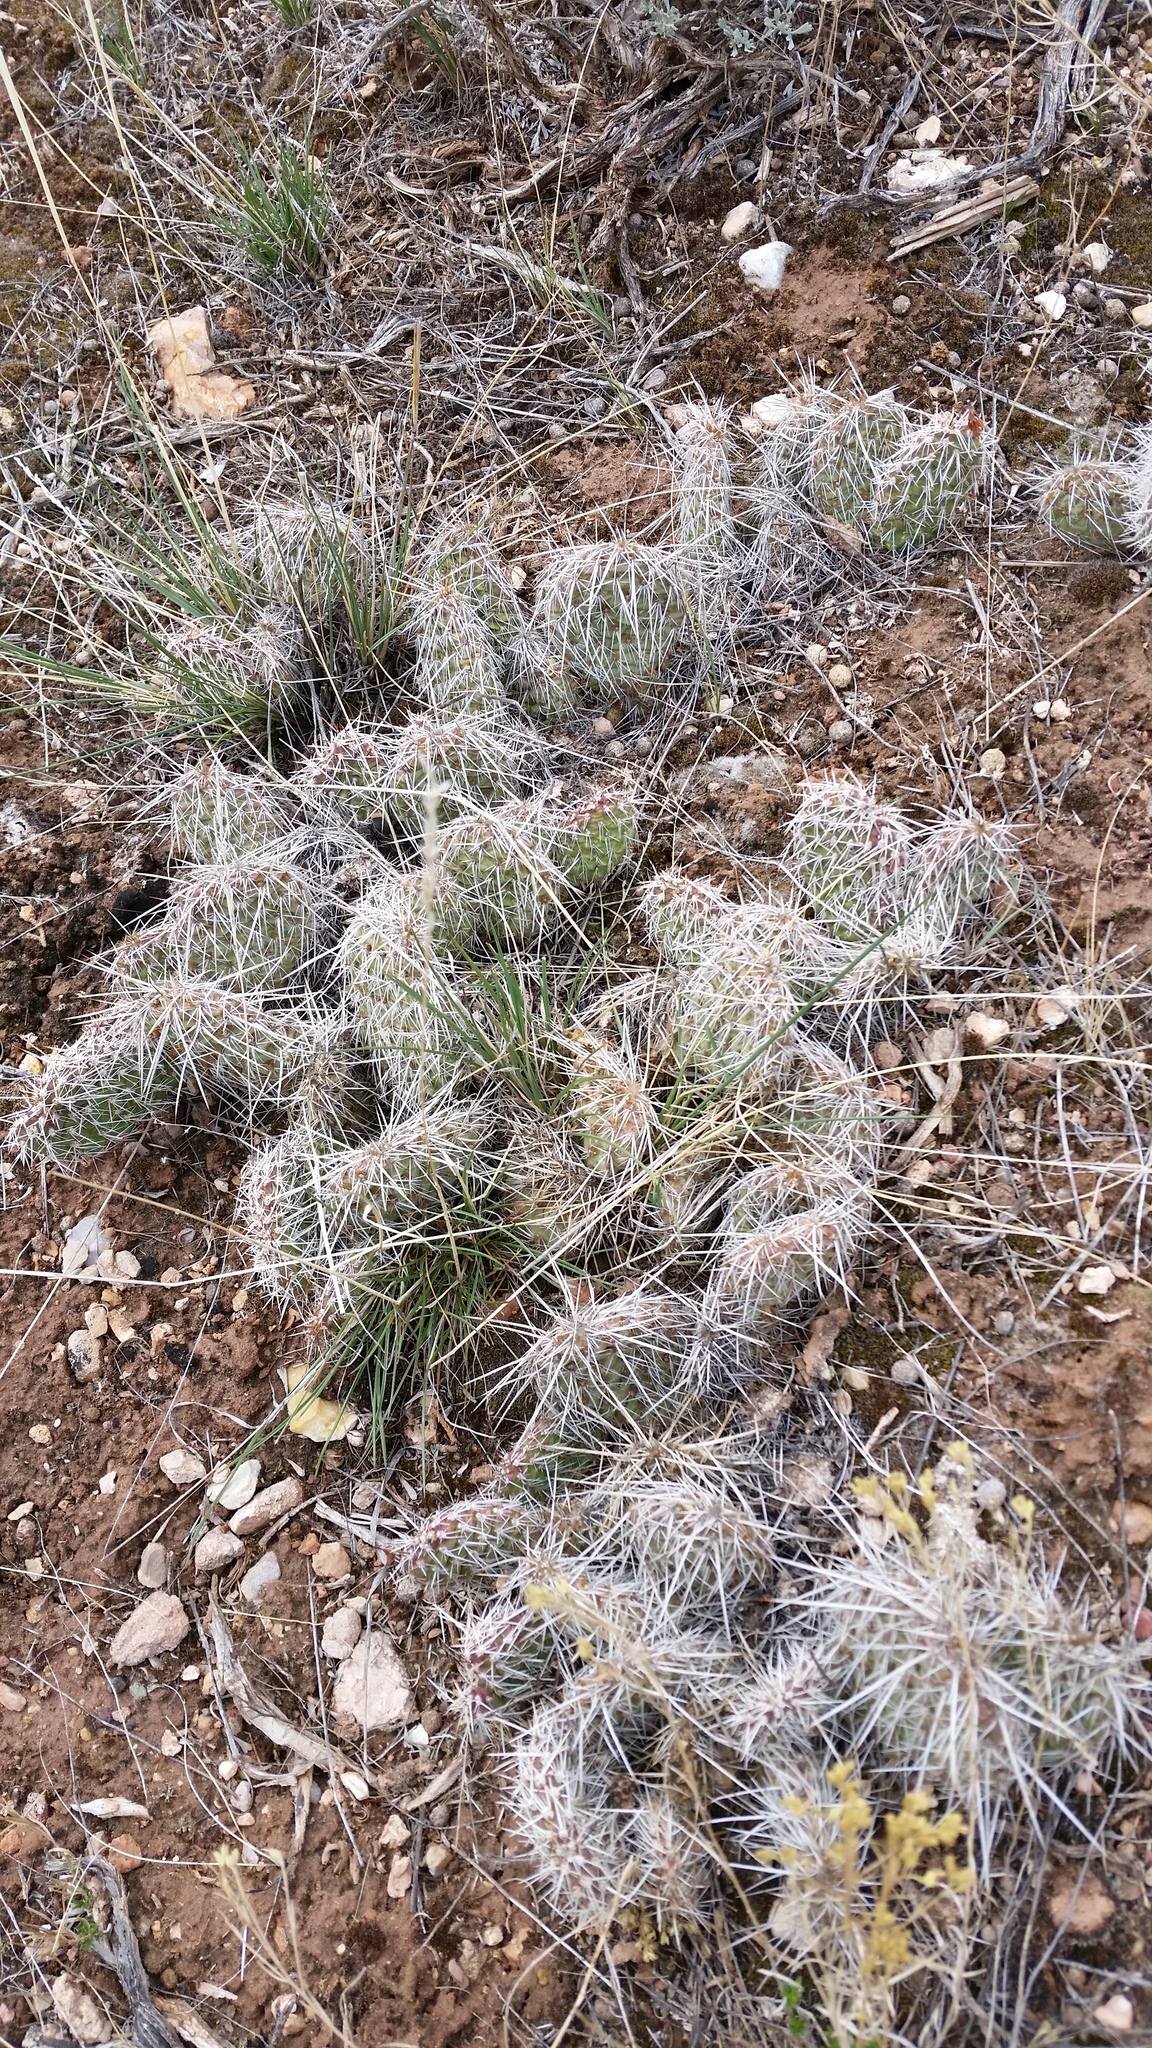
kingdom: Plantae
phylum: Tracheophyta
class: Magnoliopsida
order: Caryophyllales
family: Cactaceae
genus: Opuntia
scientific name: Opuntia polyacantha
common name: Plains prickly-pear
